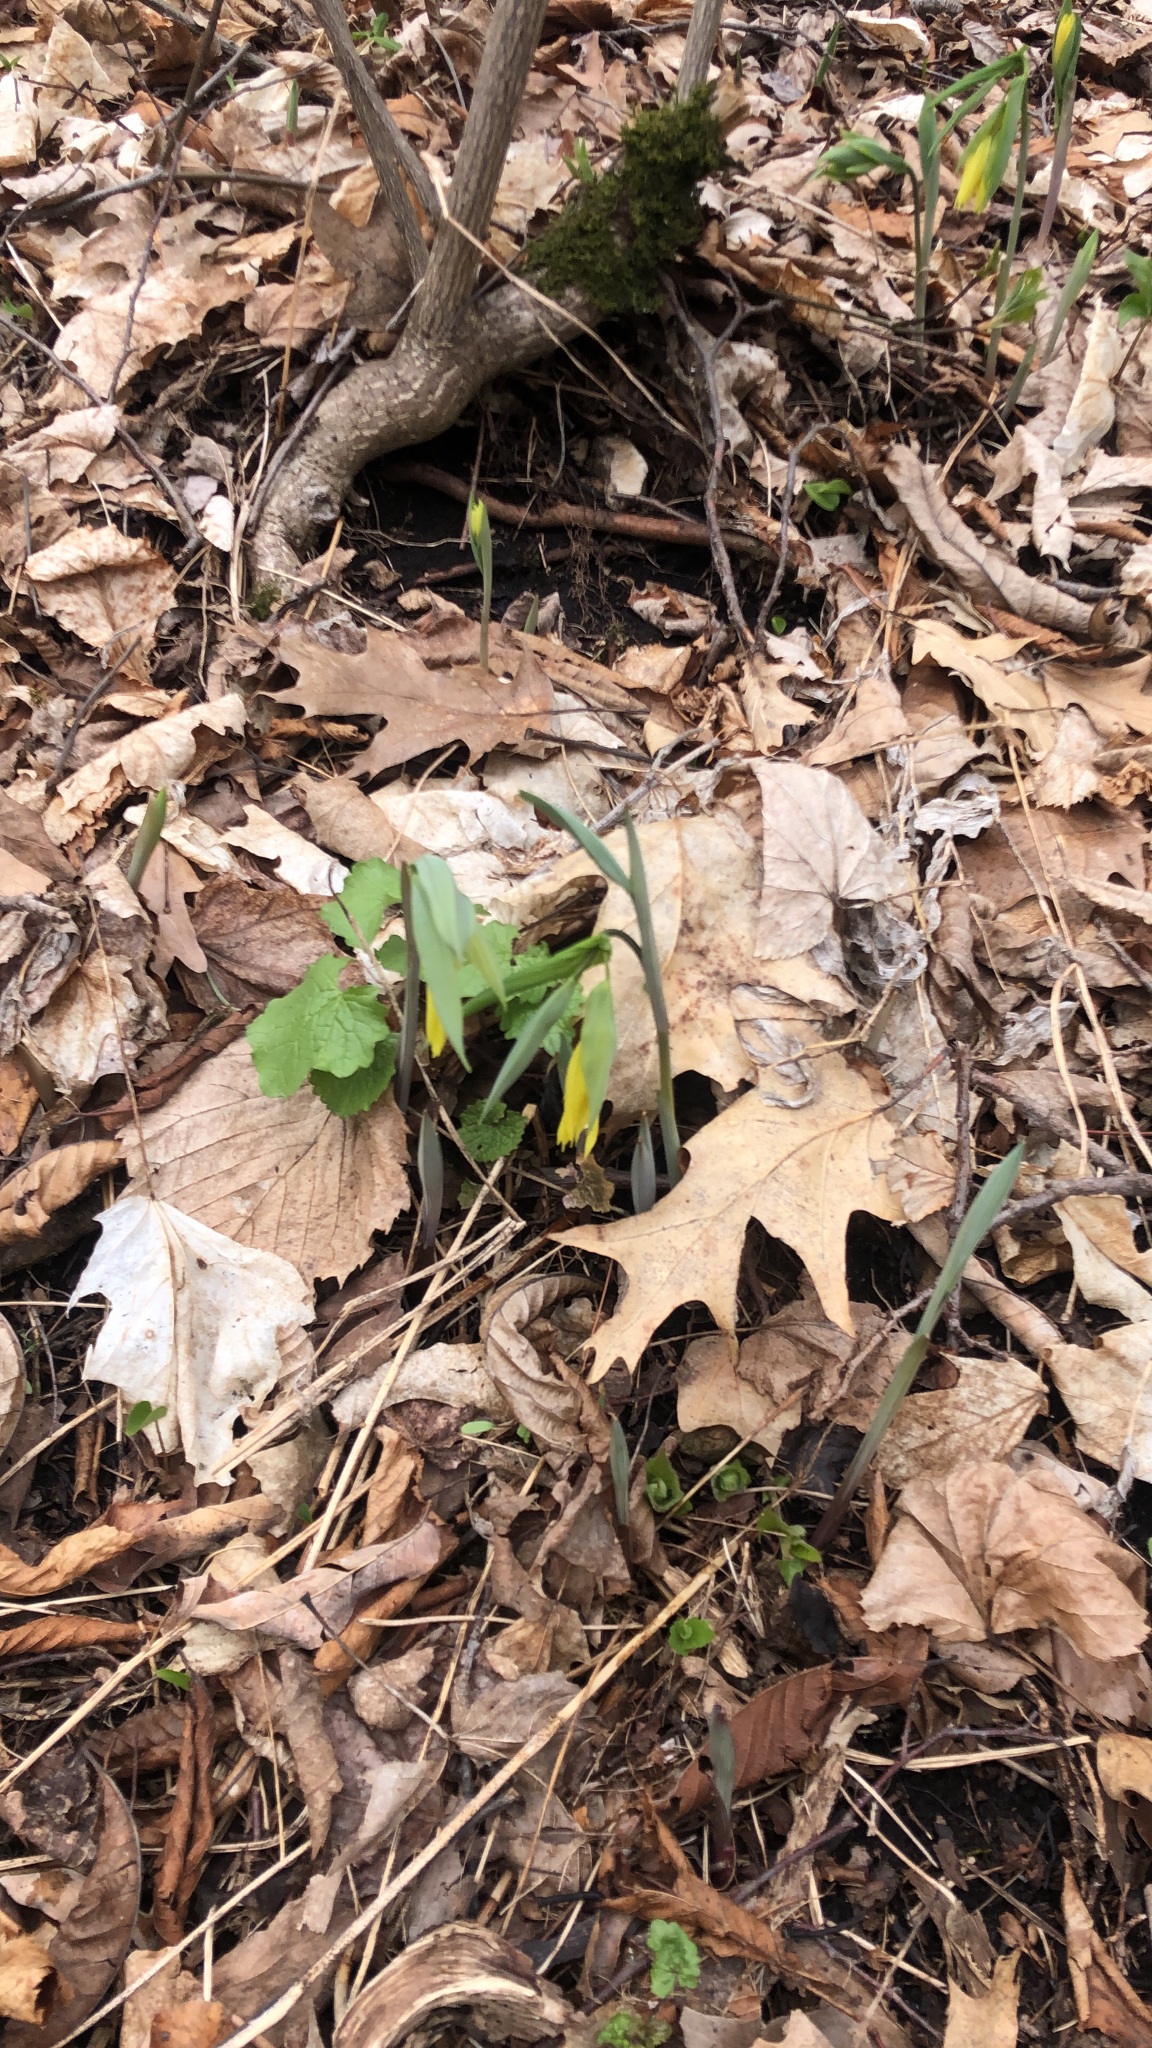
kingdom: Plantae
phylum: Tracheophyta
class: Liliopsida
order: Liliales
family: Colchicaceae
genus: Uvularia
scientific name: Uvularia grandiflora
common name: Bellwort
